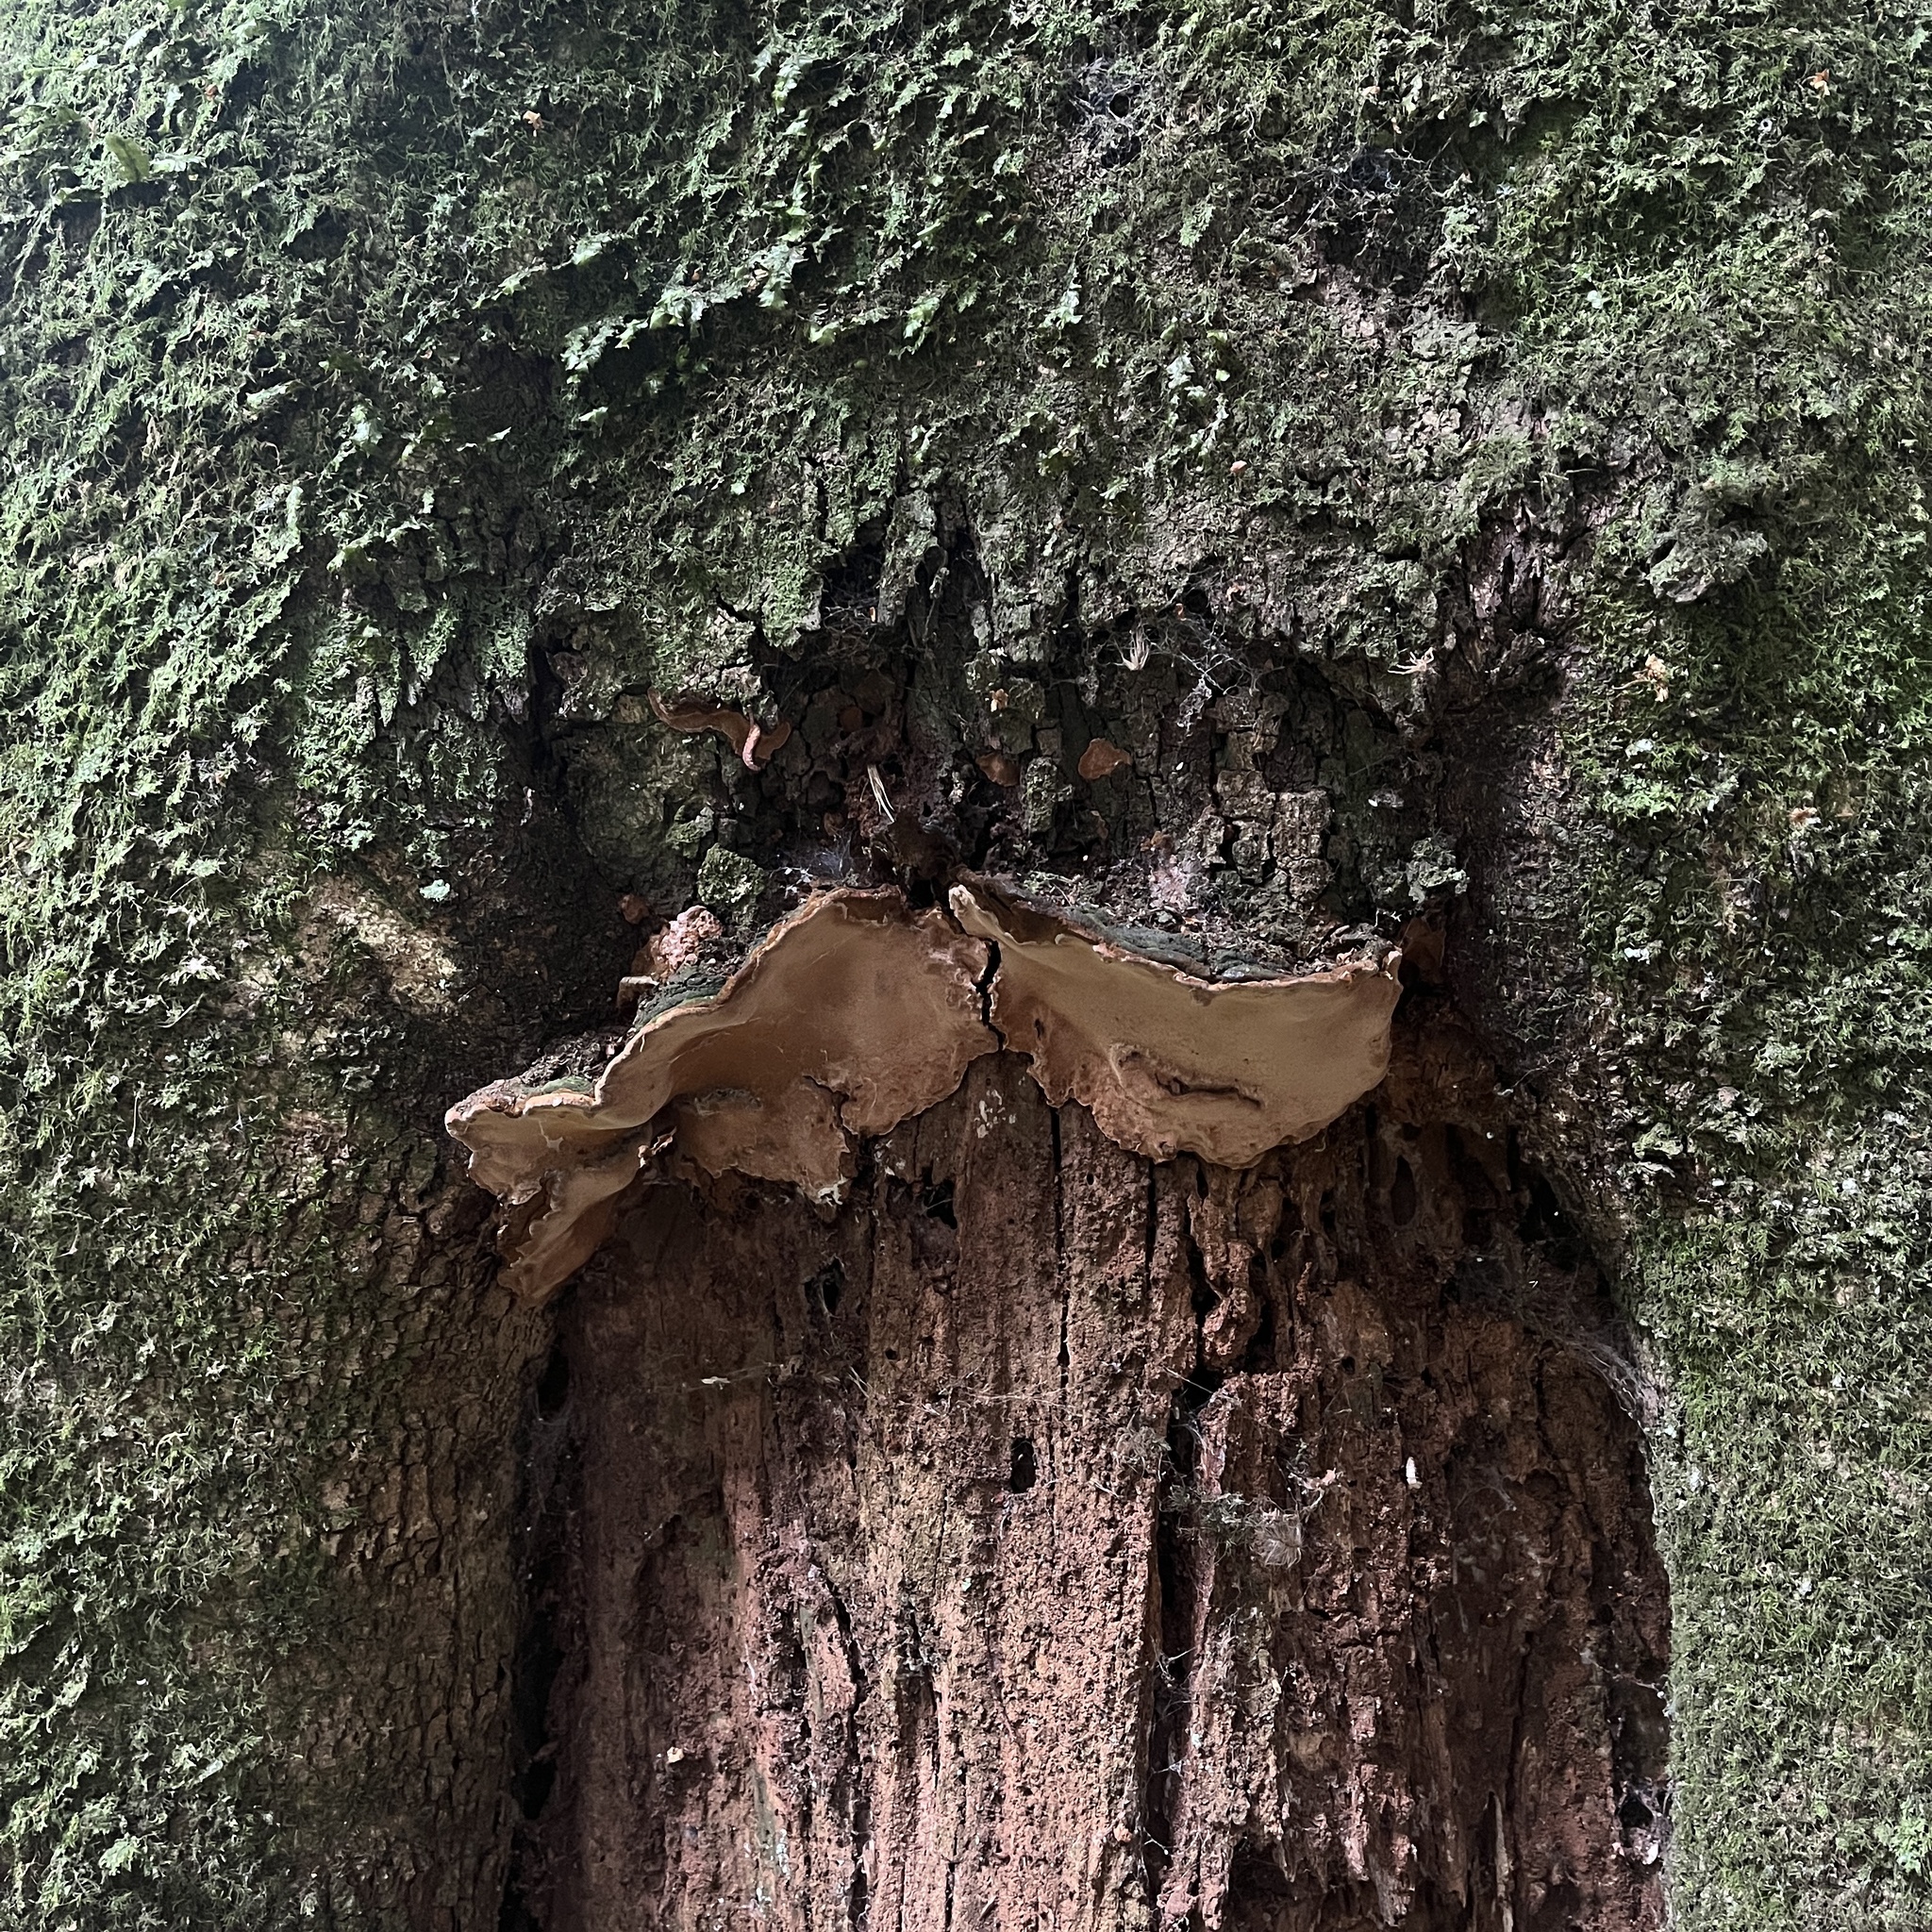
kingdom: Fungi
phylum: Basidiomycota
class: Agaricomycetes
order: Hymenochaetales
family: Hymenochaetaceae
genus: Fuscoporia
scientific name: Fuscoporia senex
